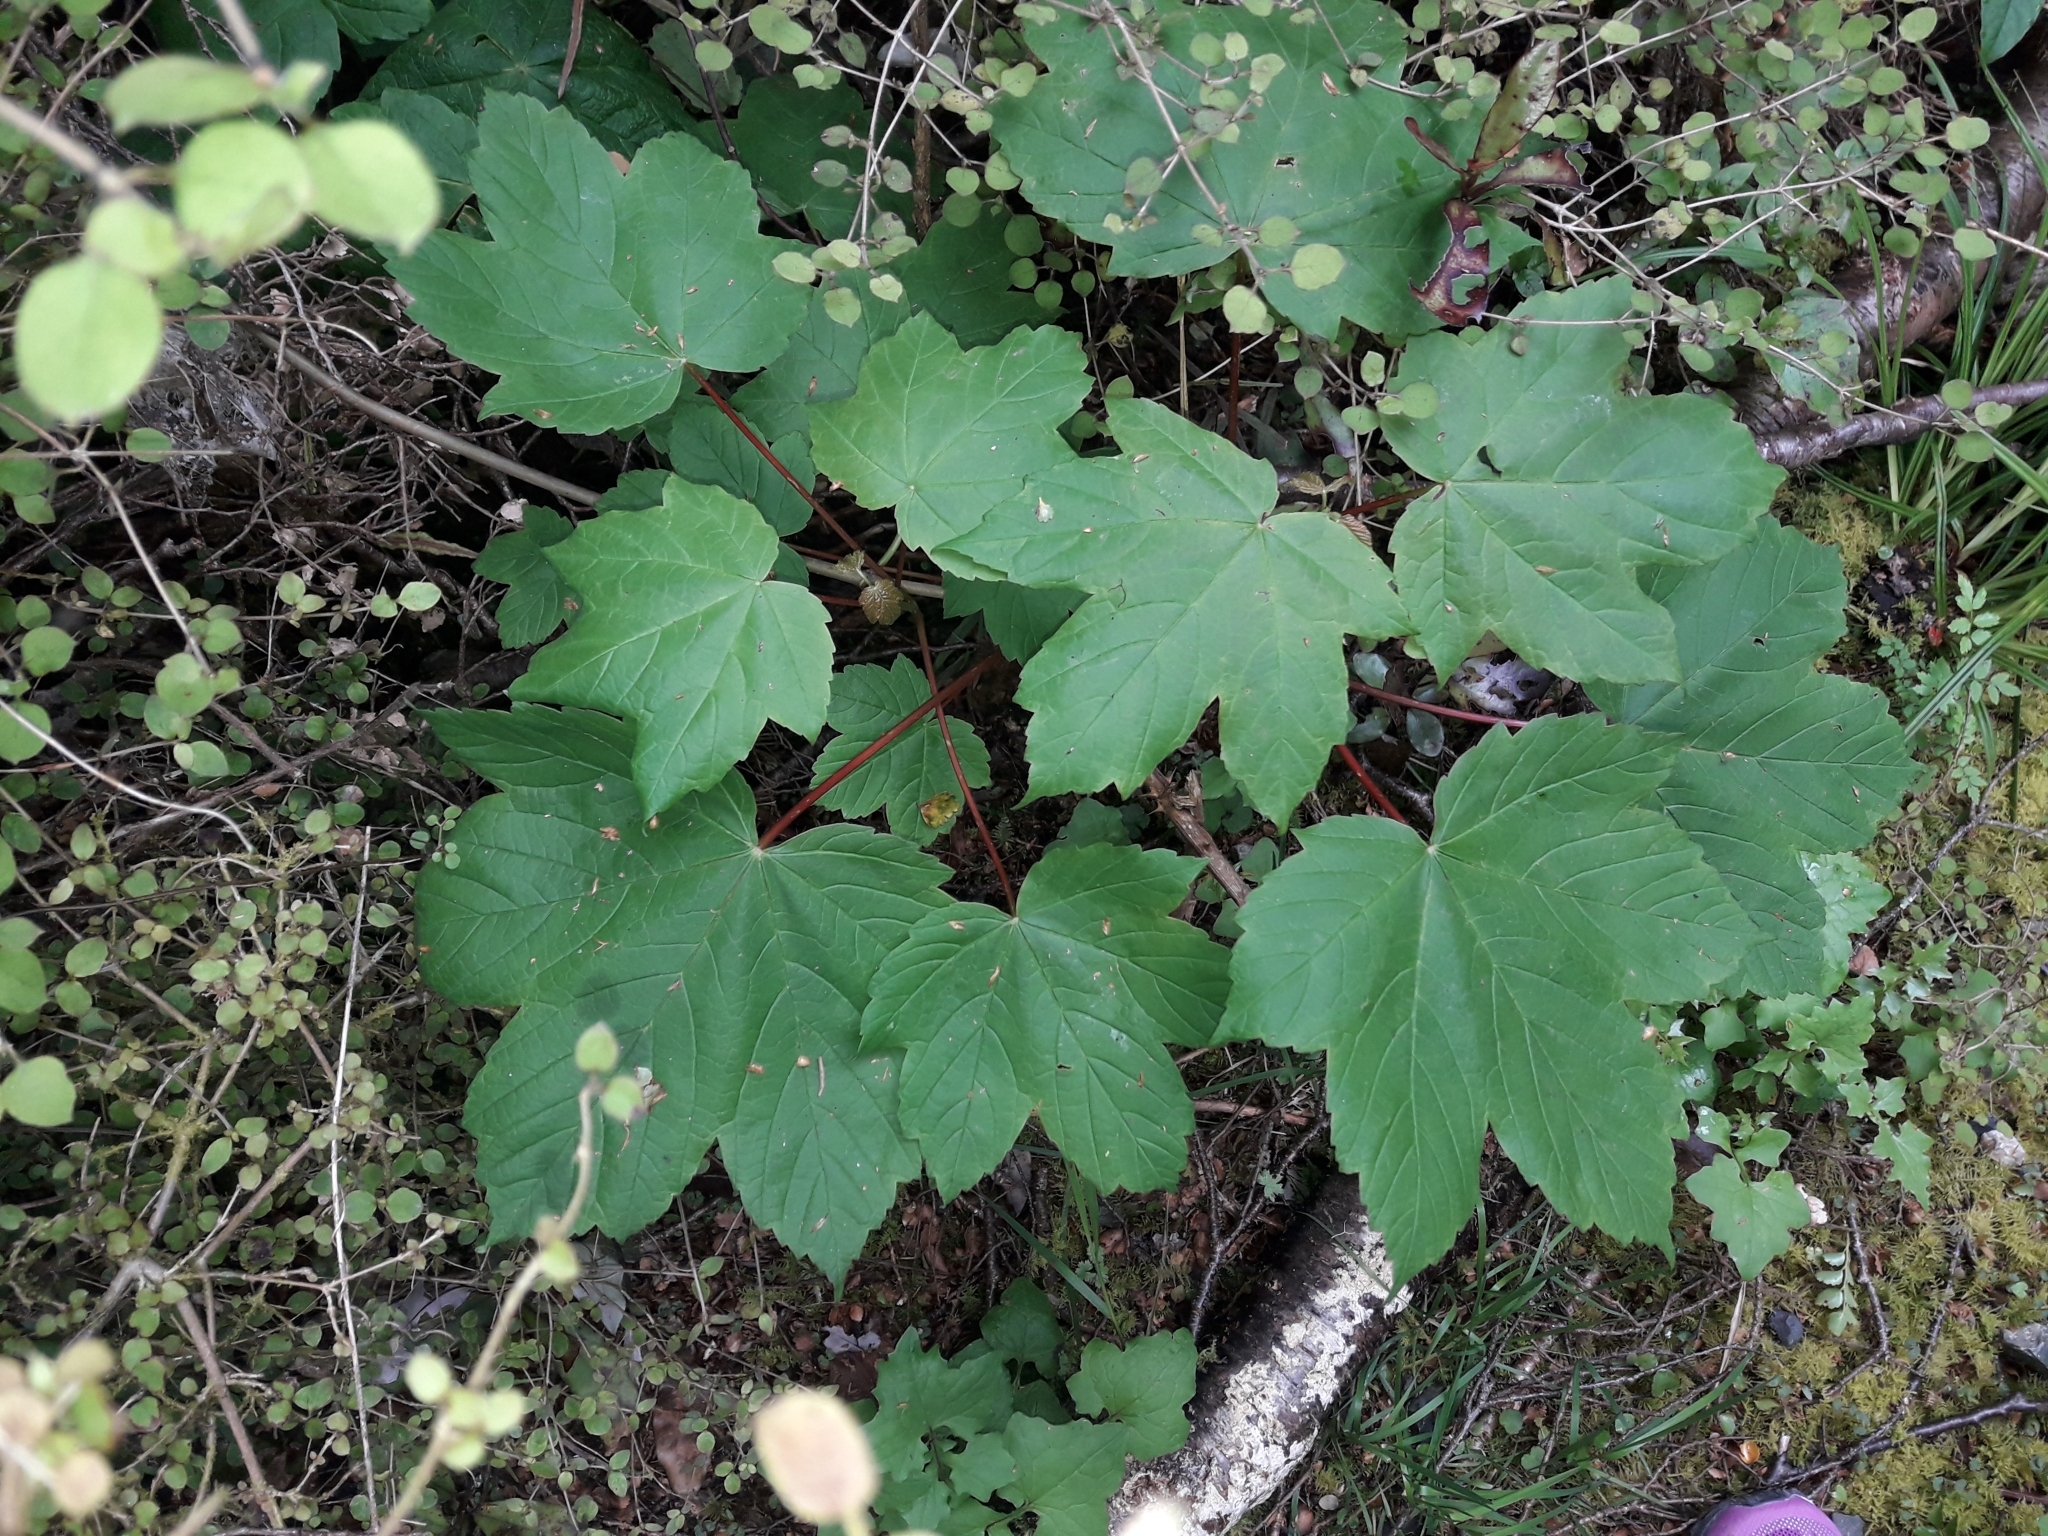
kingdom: Plantae
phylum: Tracheophyta
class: Magnoliopsida
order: Sapindales
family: Sapindaceae
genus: Acer
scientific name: Acer pseudoplatanus
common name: Sycamore
